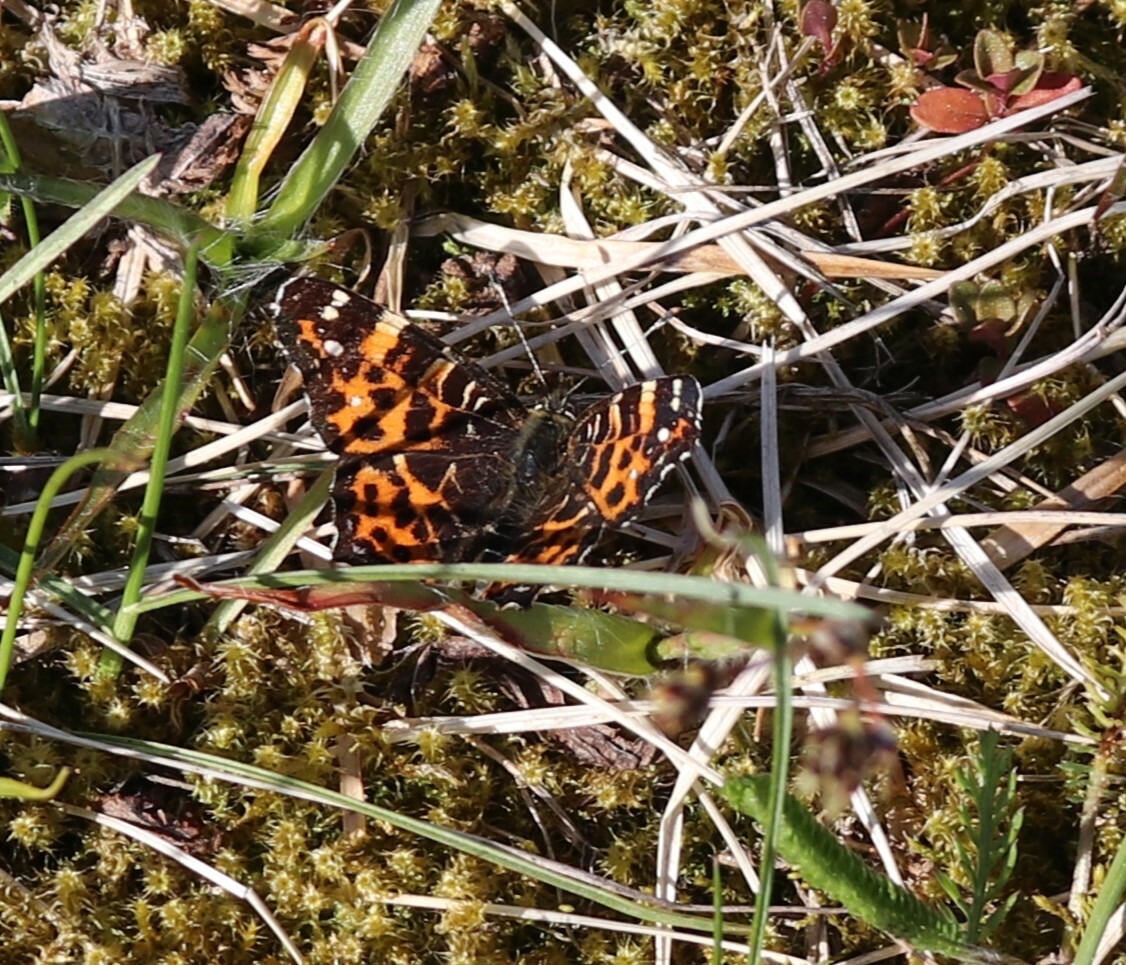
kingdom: Animalia
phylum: Arthropoda
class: Insecta
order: Lepidoptera
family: Nymphalidae
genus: Araschnia
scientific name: Araschnia levana
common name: Map butterfly
